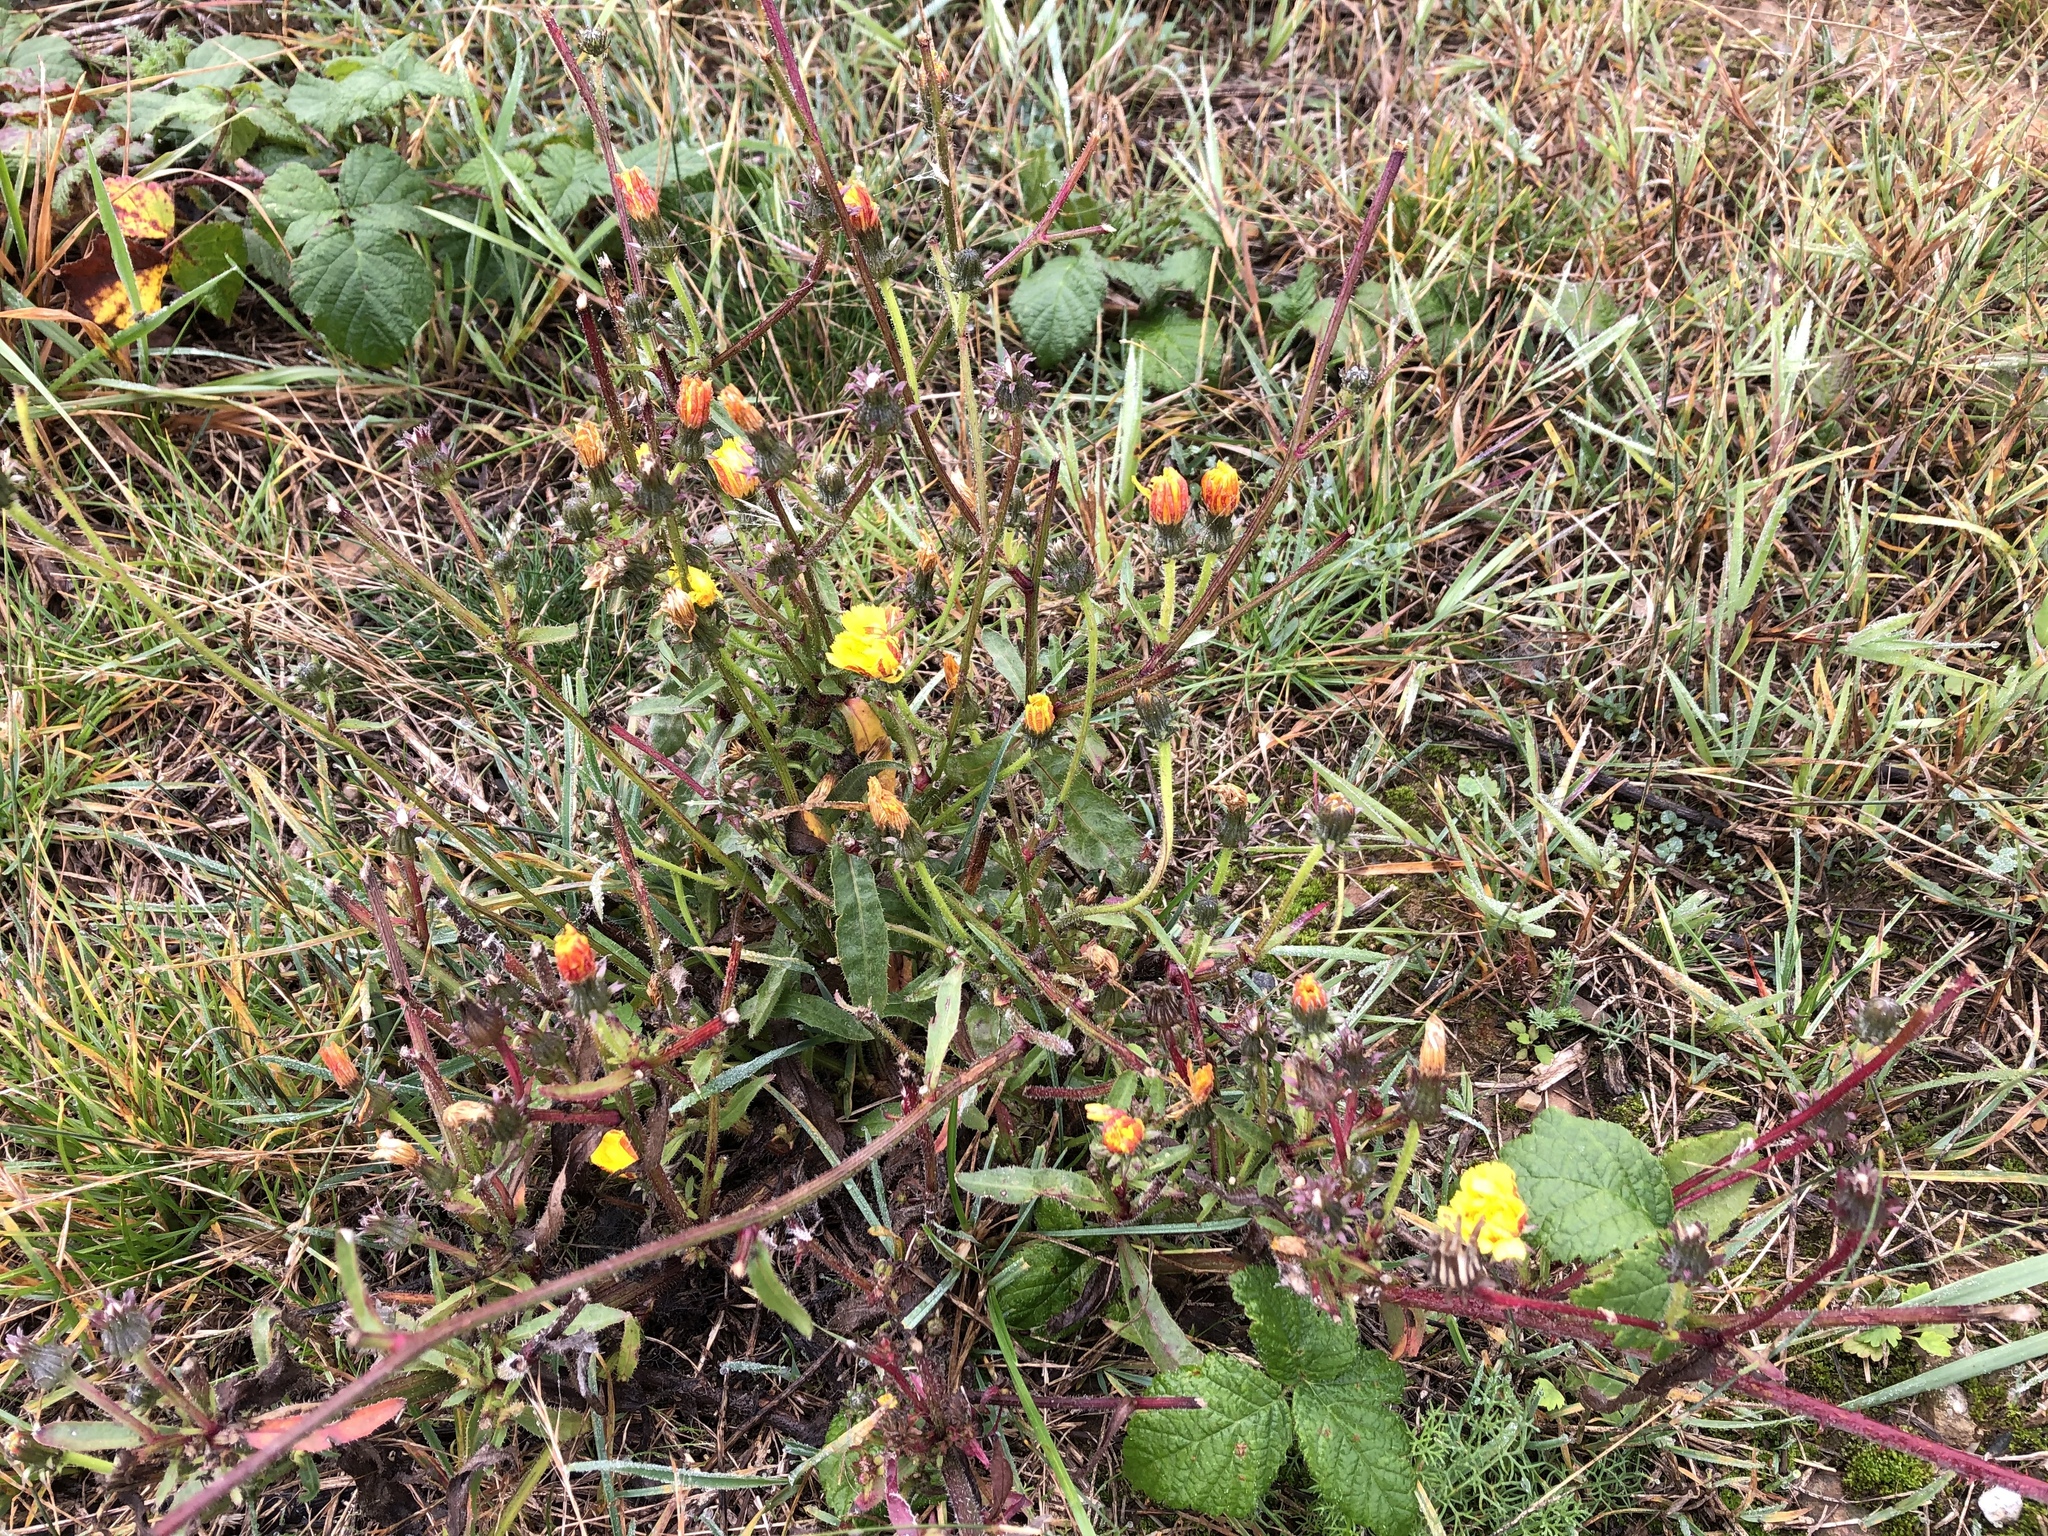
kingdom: Plantae
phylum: Tracheophyta
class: Magnoliopsida
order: Asterales
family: Asteraceae
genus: Picris
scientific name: Picris hieracioides
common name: Hawkweed oxtongue
